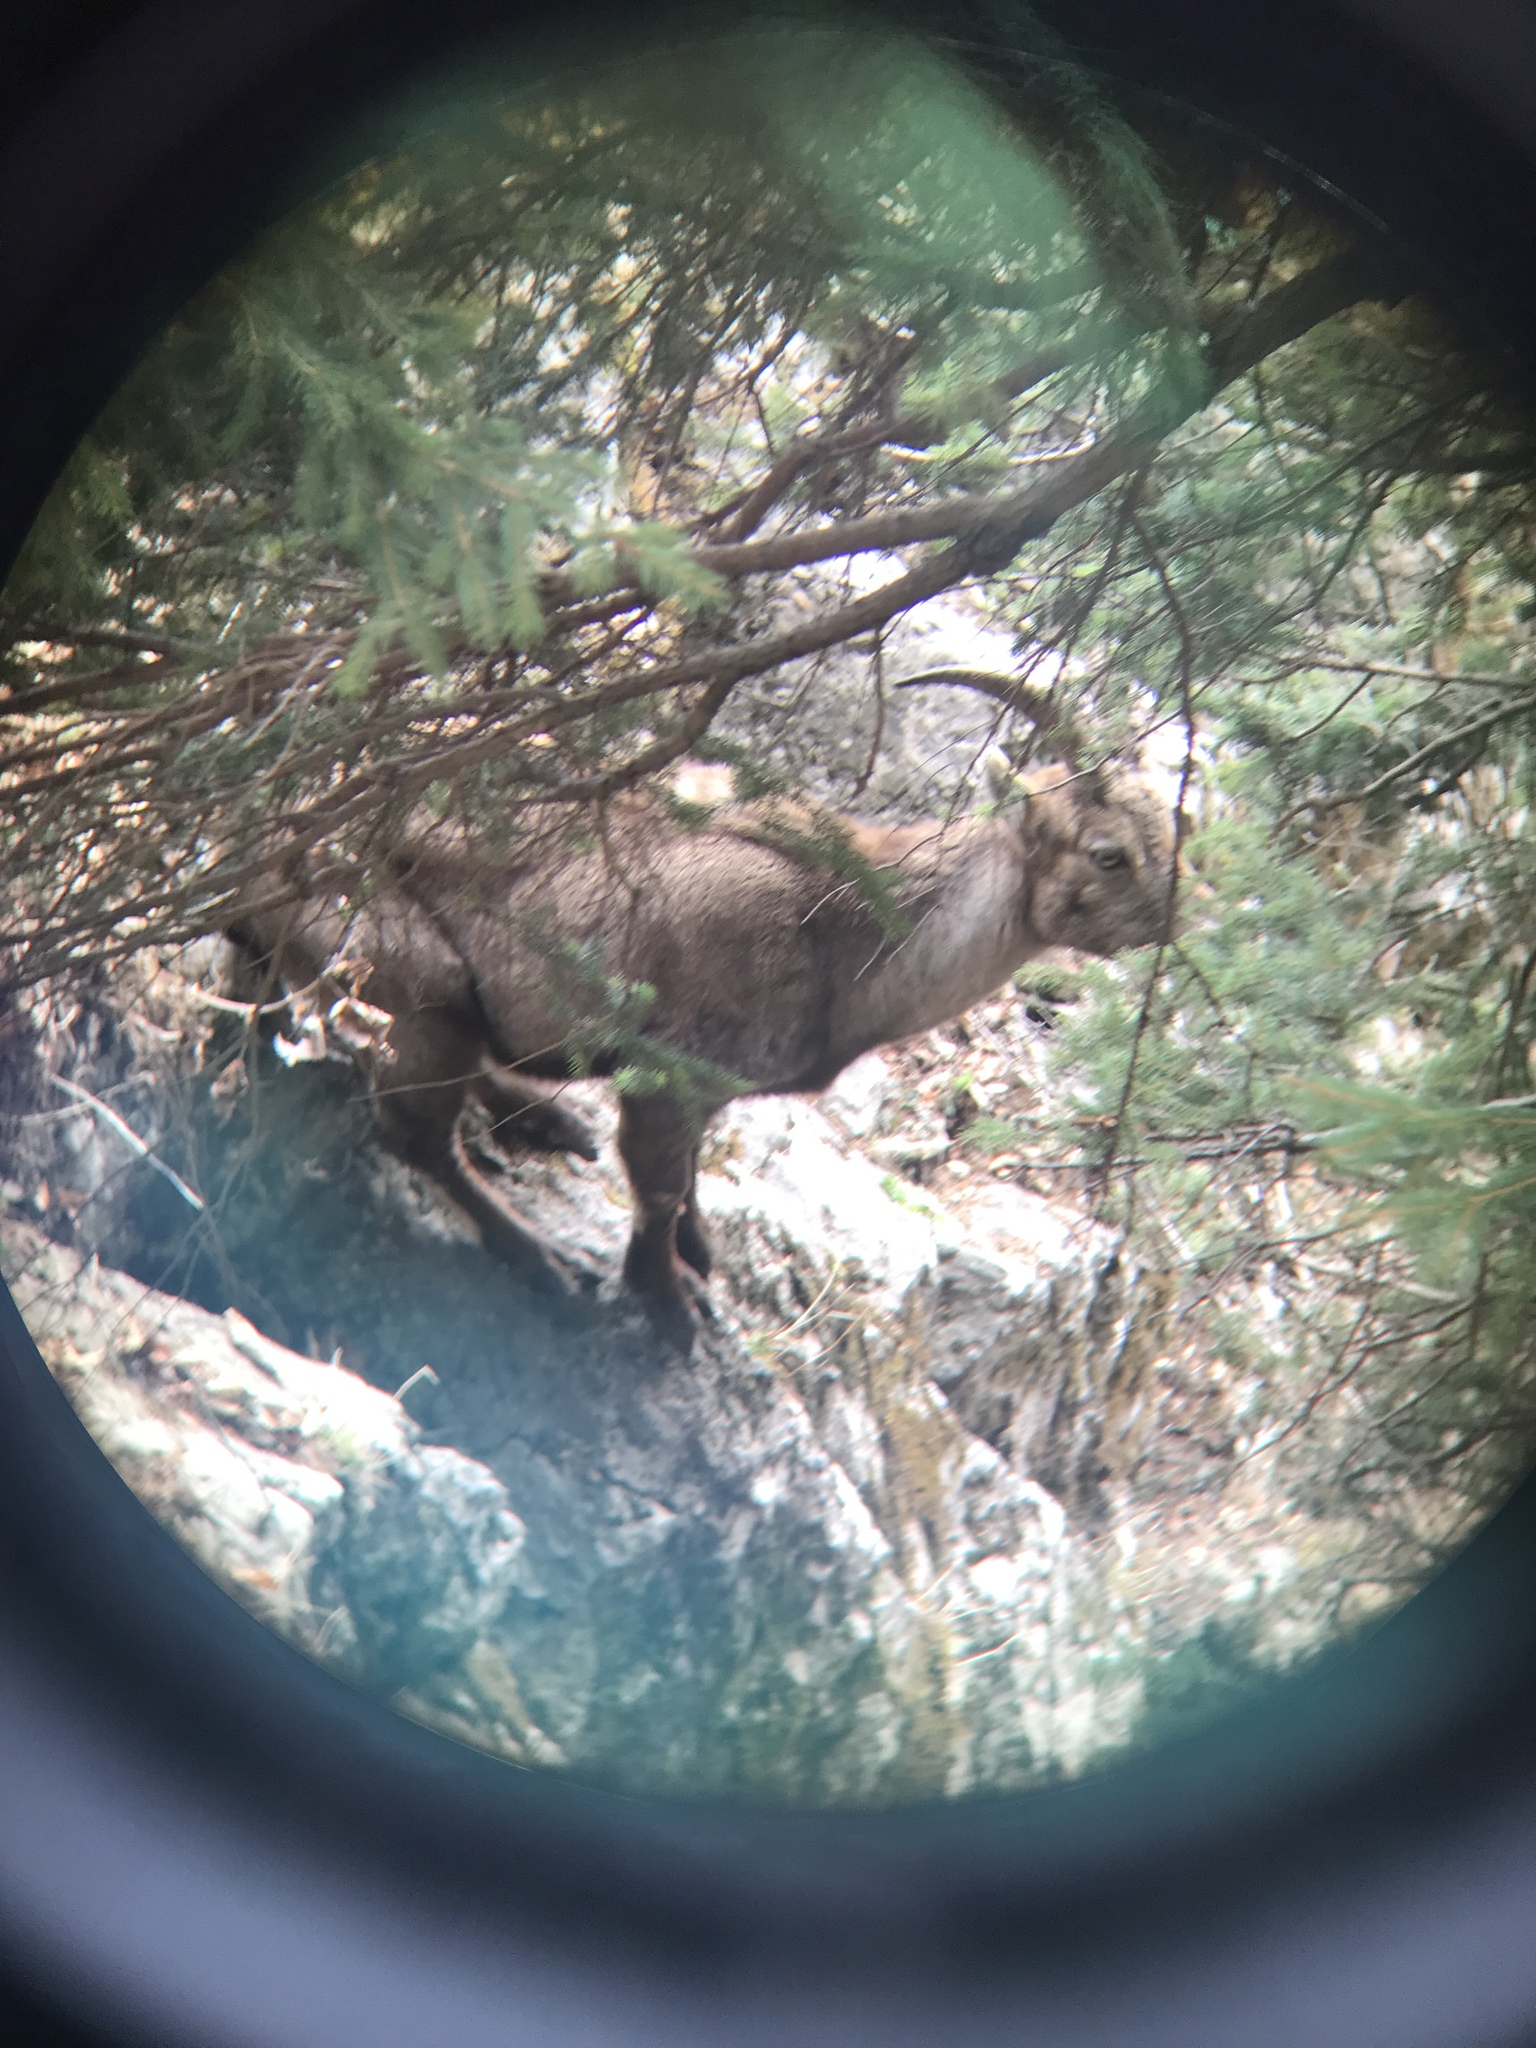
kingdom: Animalia
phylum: Chordata
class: Mammalia
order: Artiodactyla
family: Bovidae
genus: Capra
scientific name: Capra ibex
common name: Alpine ibex
